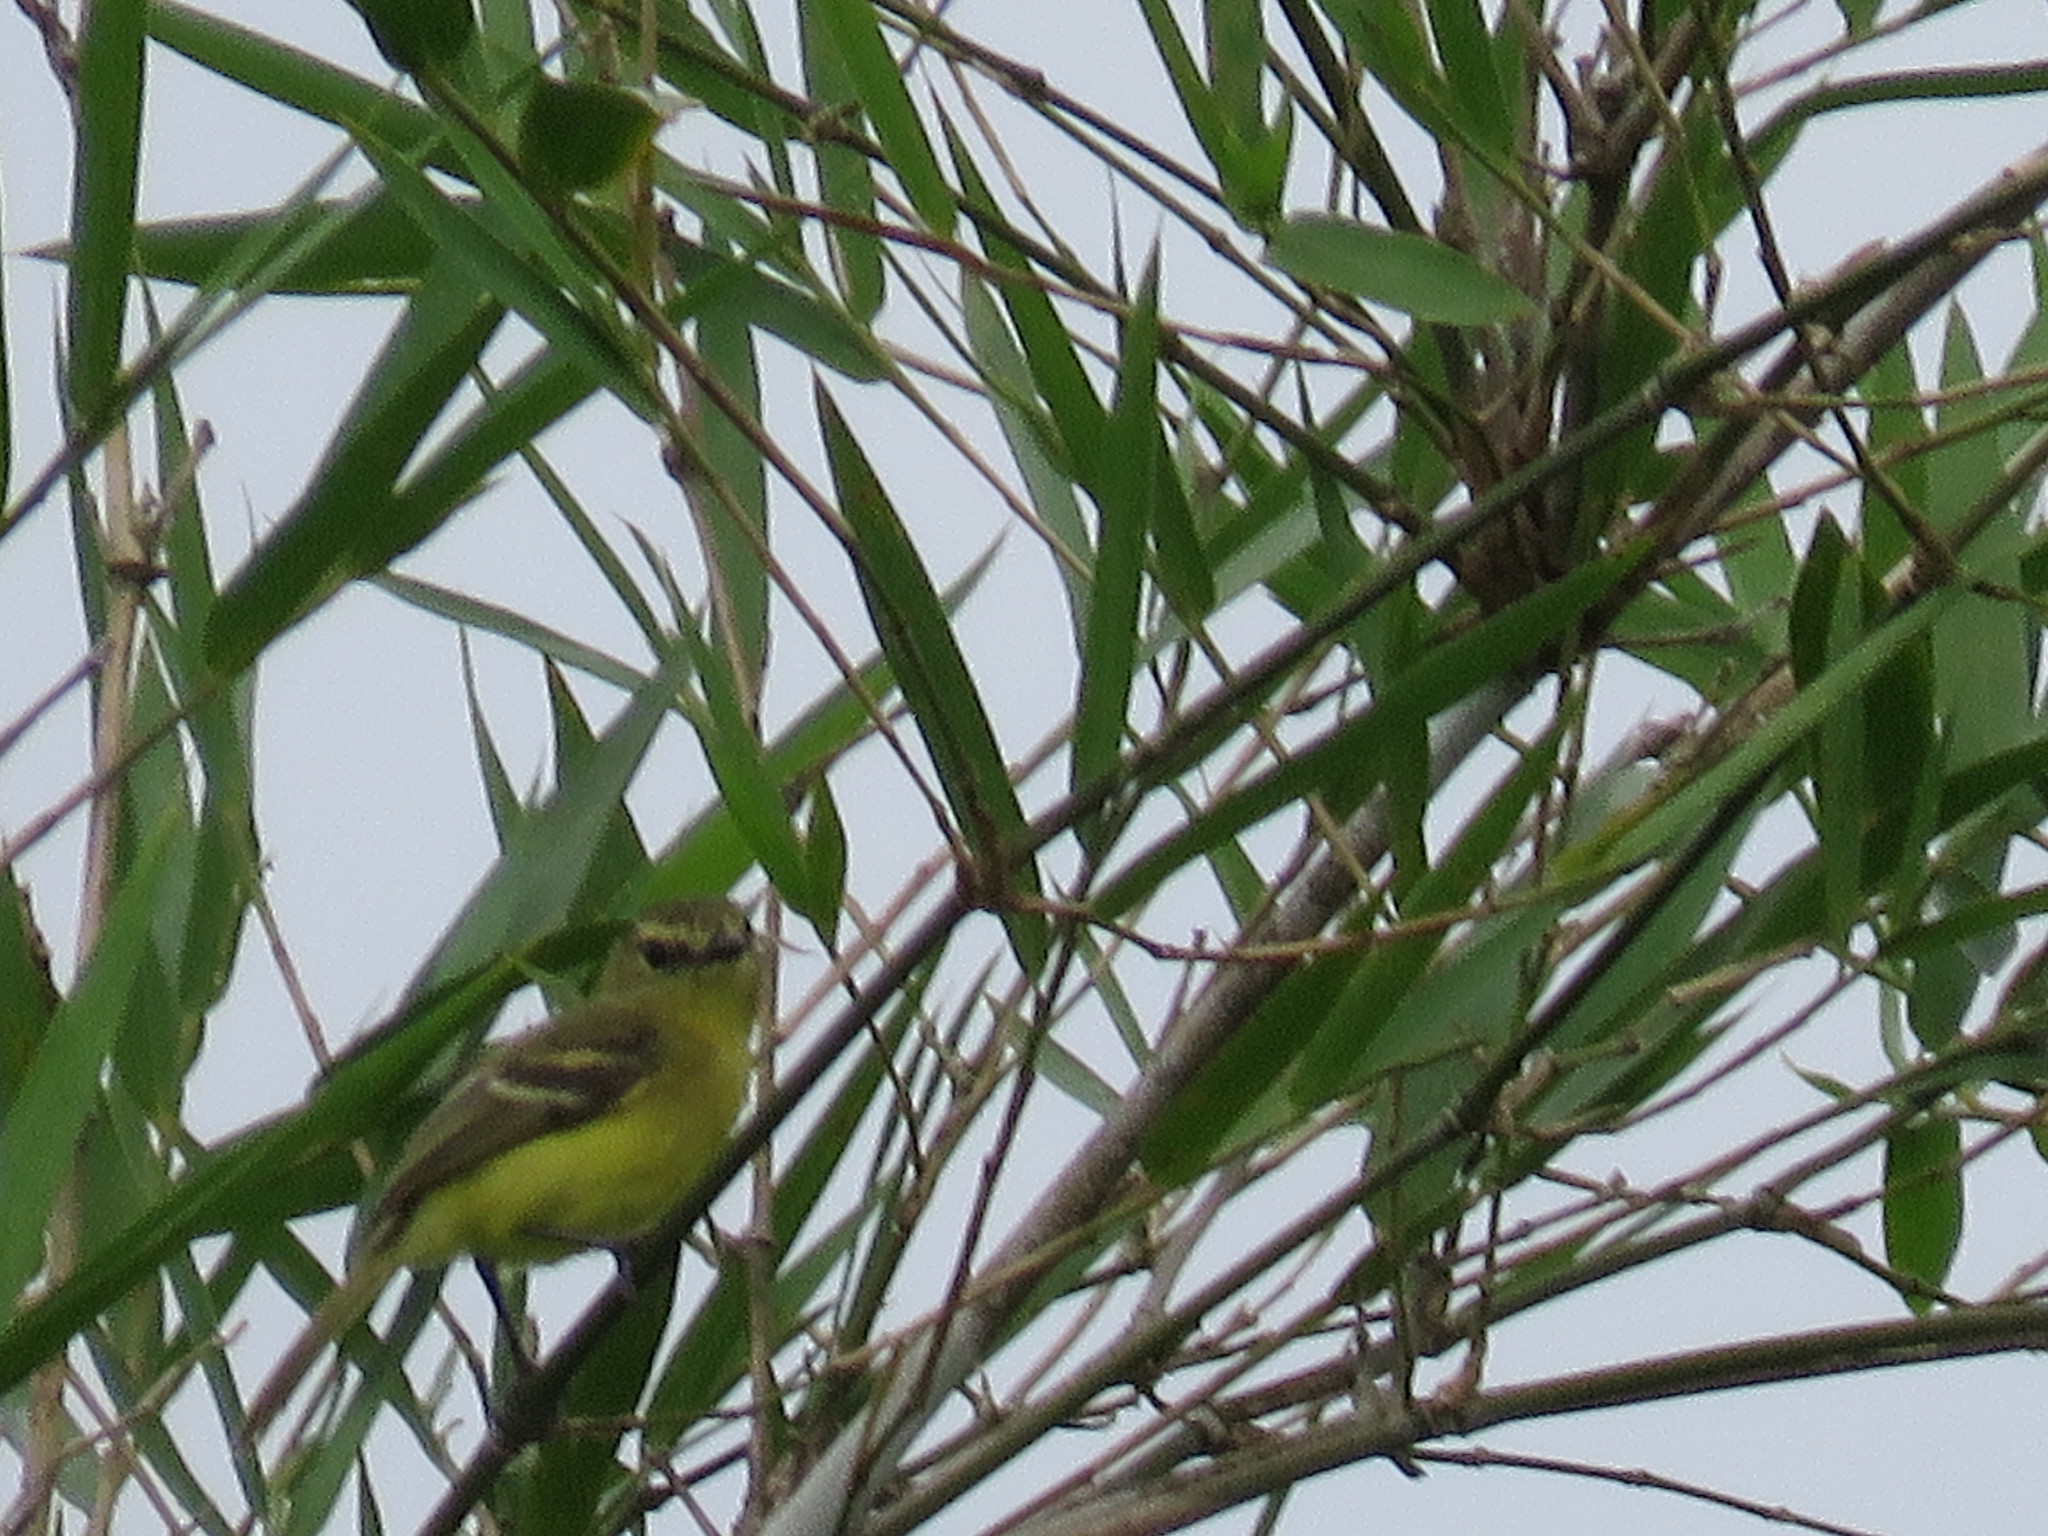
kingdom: Animalia
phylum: Chordata
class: Aves
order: Passeriformes
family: Tyrannidae
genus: Capsiempis
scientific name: Capsiempis flaveola
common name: Yellow tyrannulet
